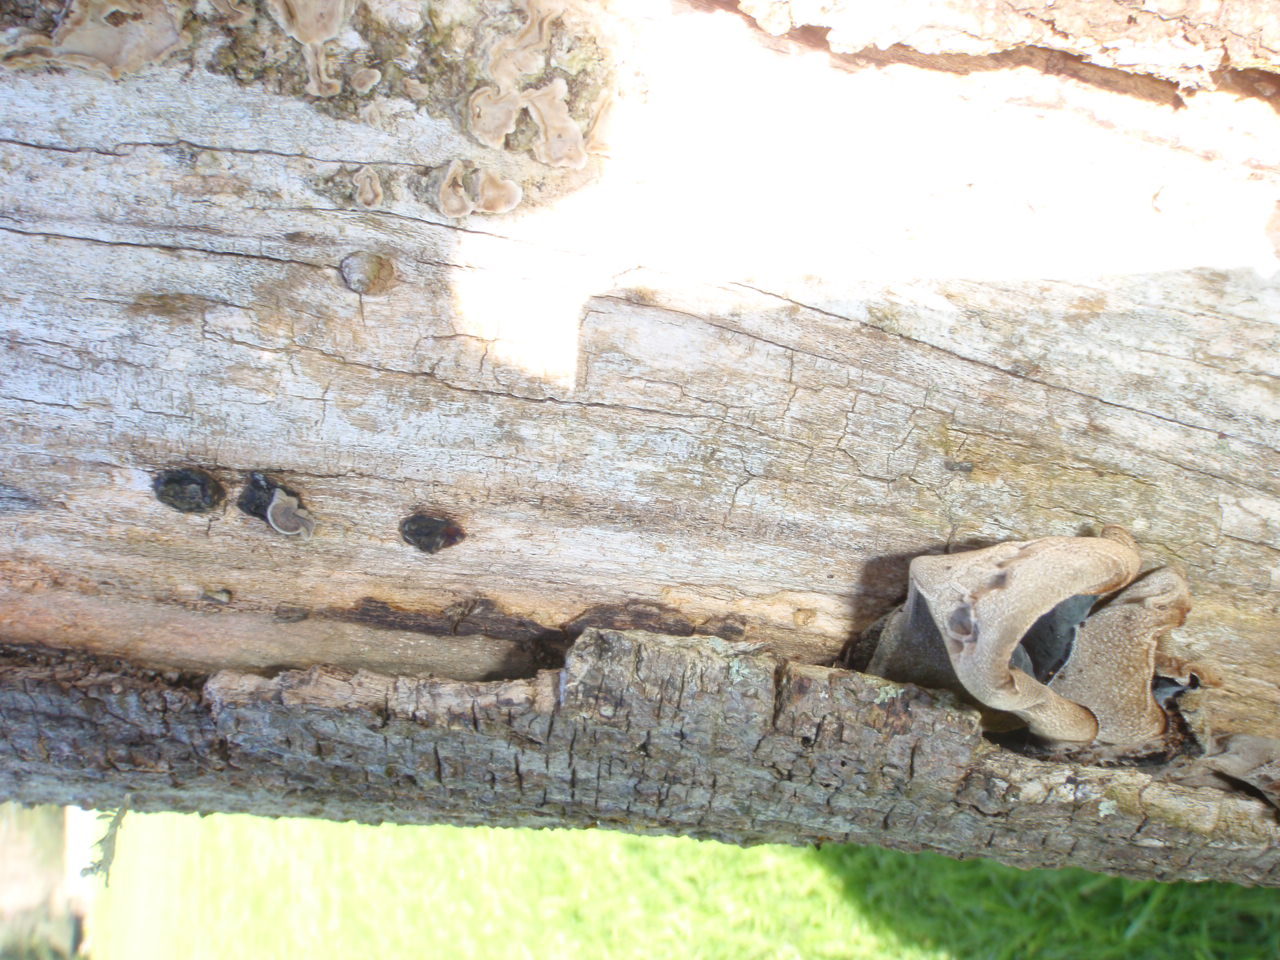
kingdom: Fungi
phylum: Basidiomycota
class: Agaricomycetes
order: Auriculariales
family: Auriculariaceae
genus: Auricularia
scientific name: Auricularia cornea
